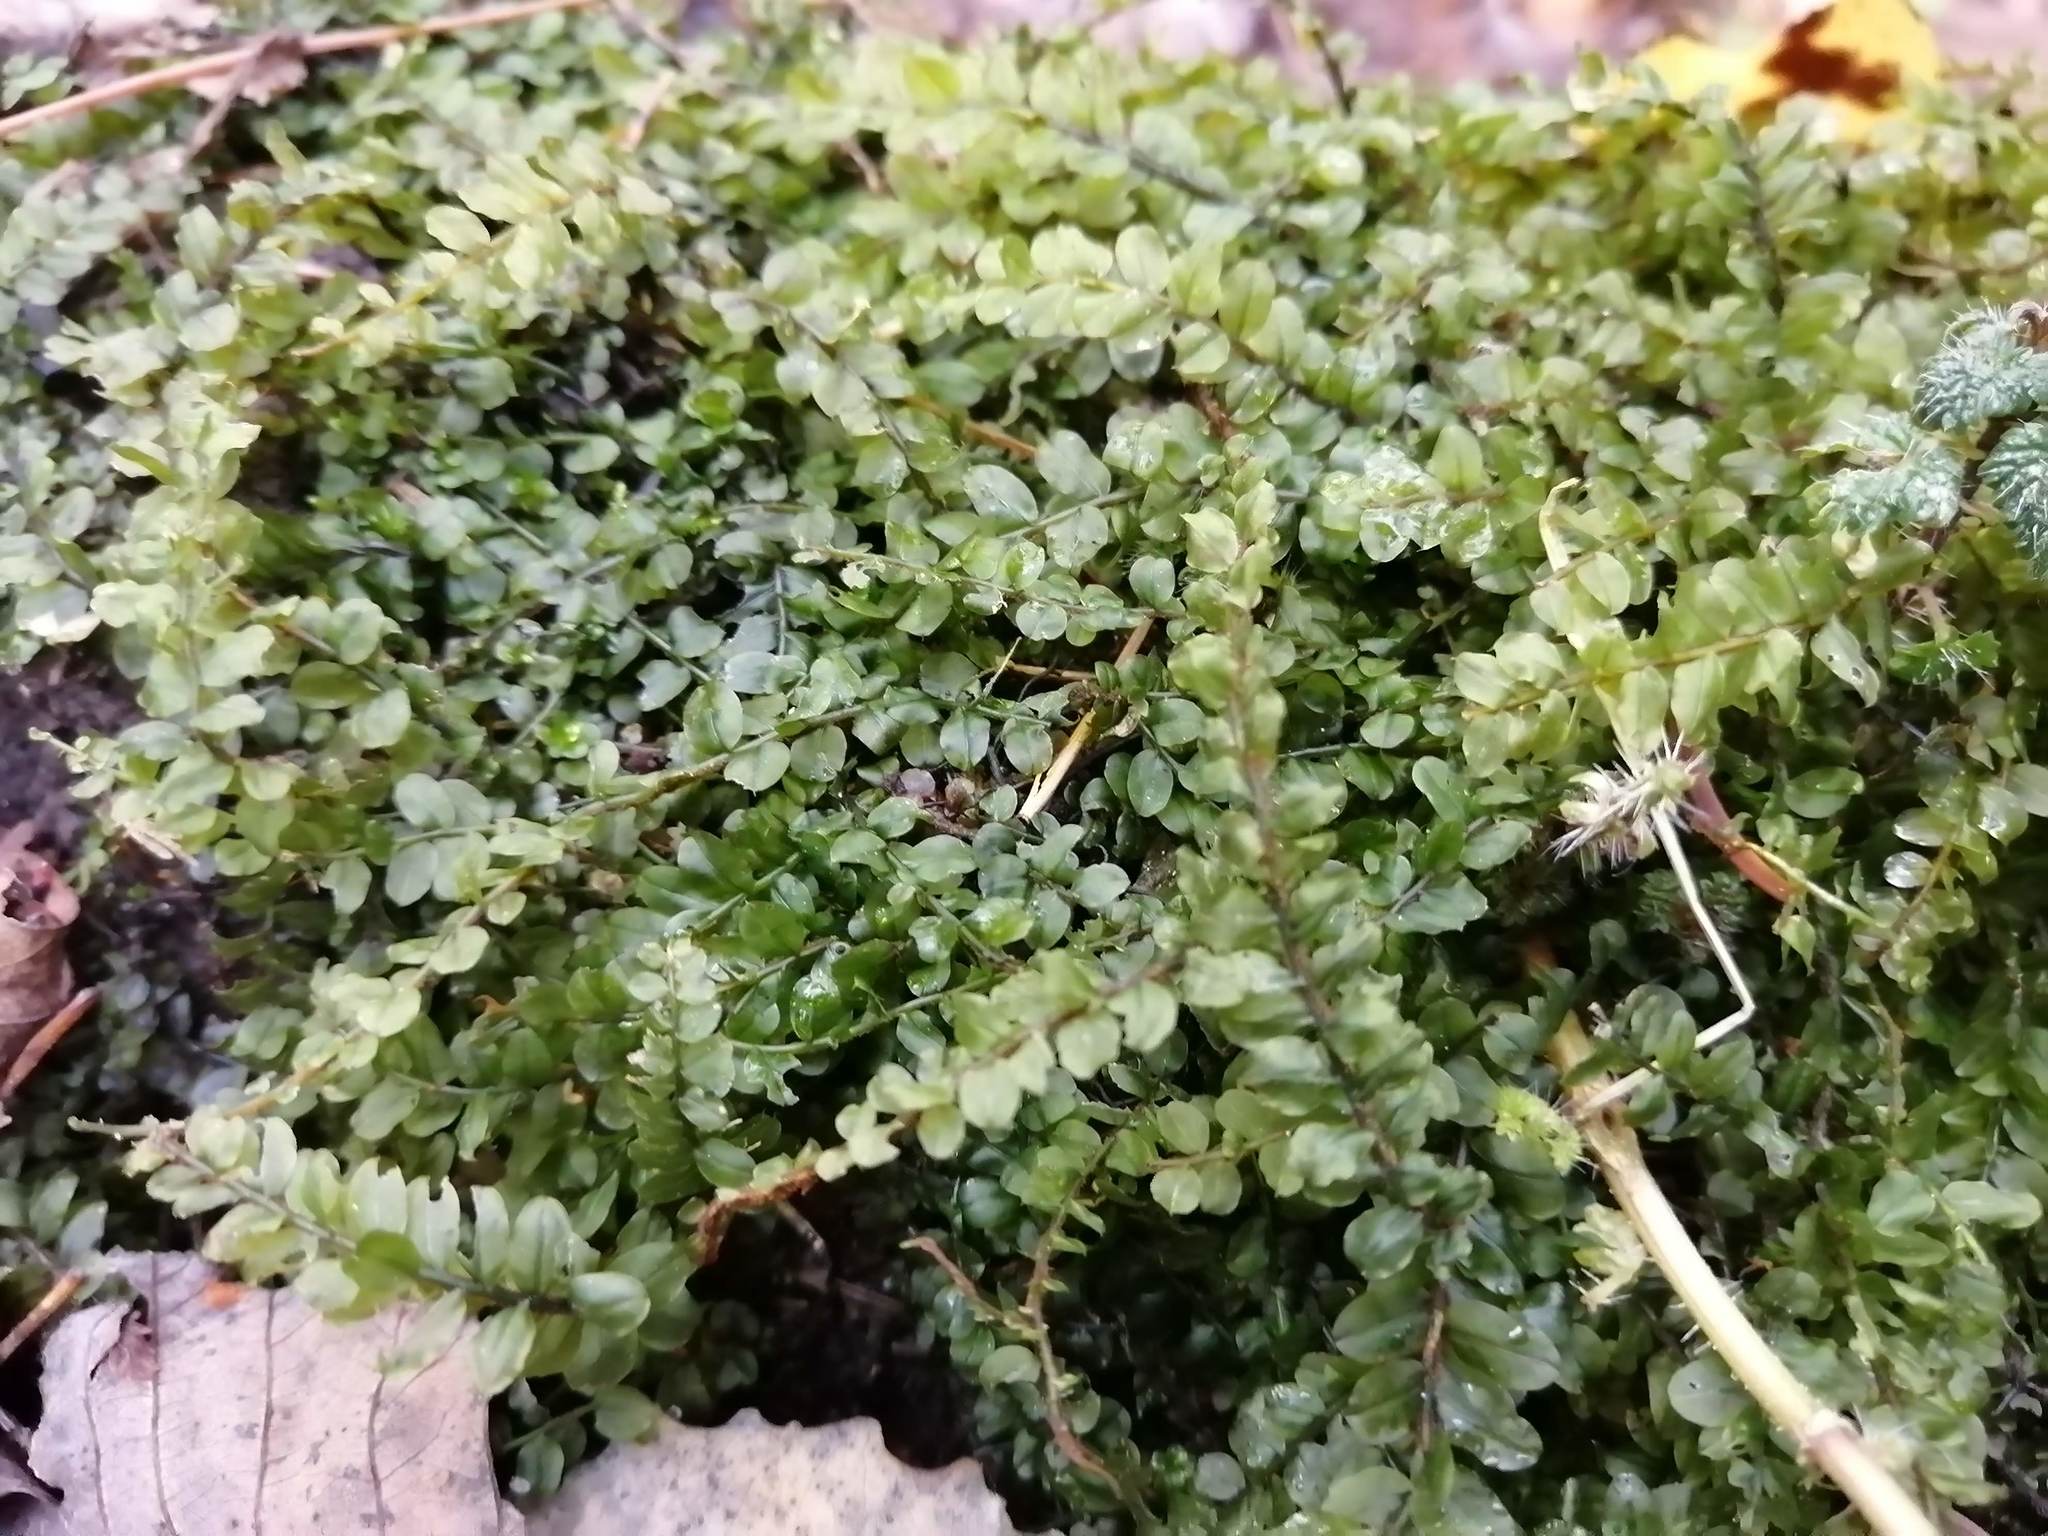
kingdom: Plantae
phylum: Bryophyta
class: Bryopsida
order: Bryales
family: Mniaceae
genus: Plagiomnium
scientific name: Plagiomnium rostratum
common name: Long-beaked leafy moss
